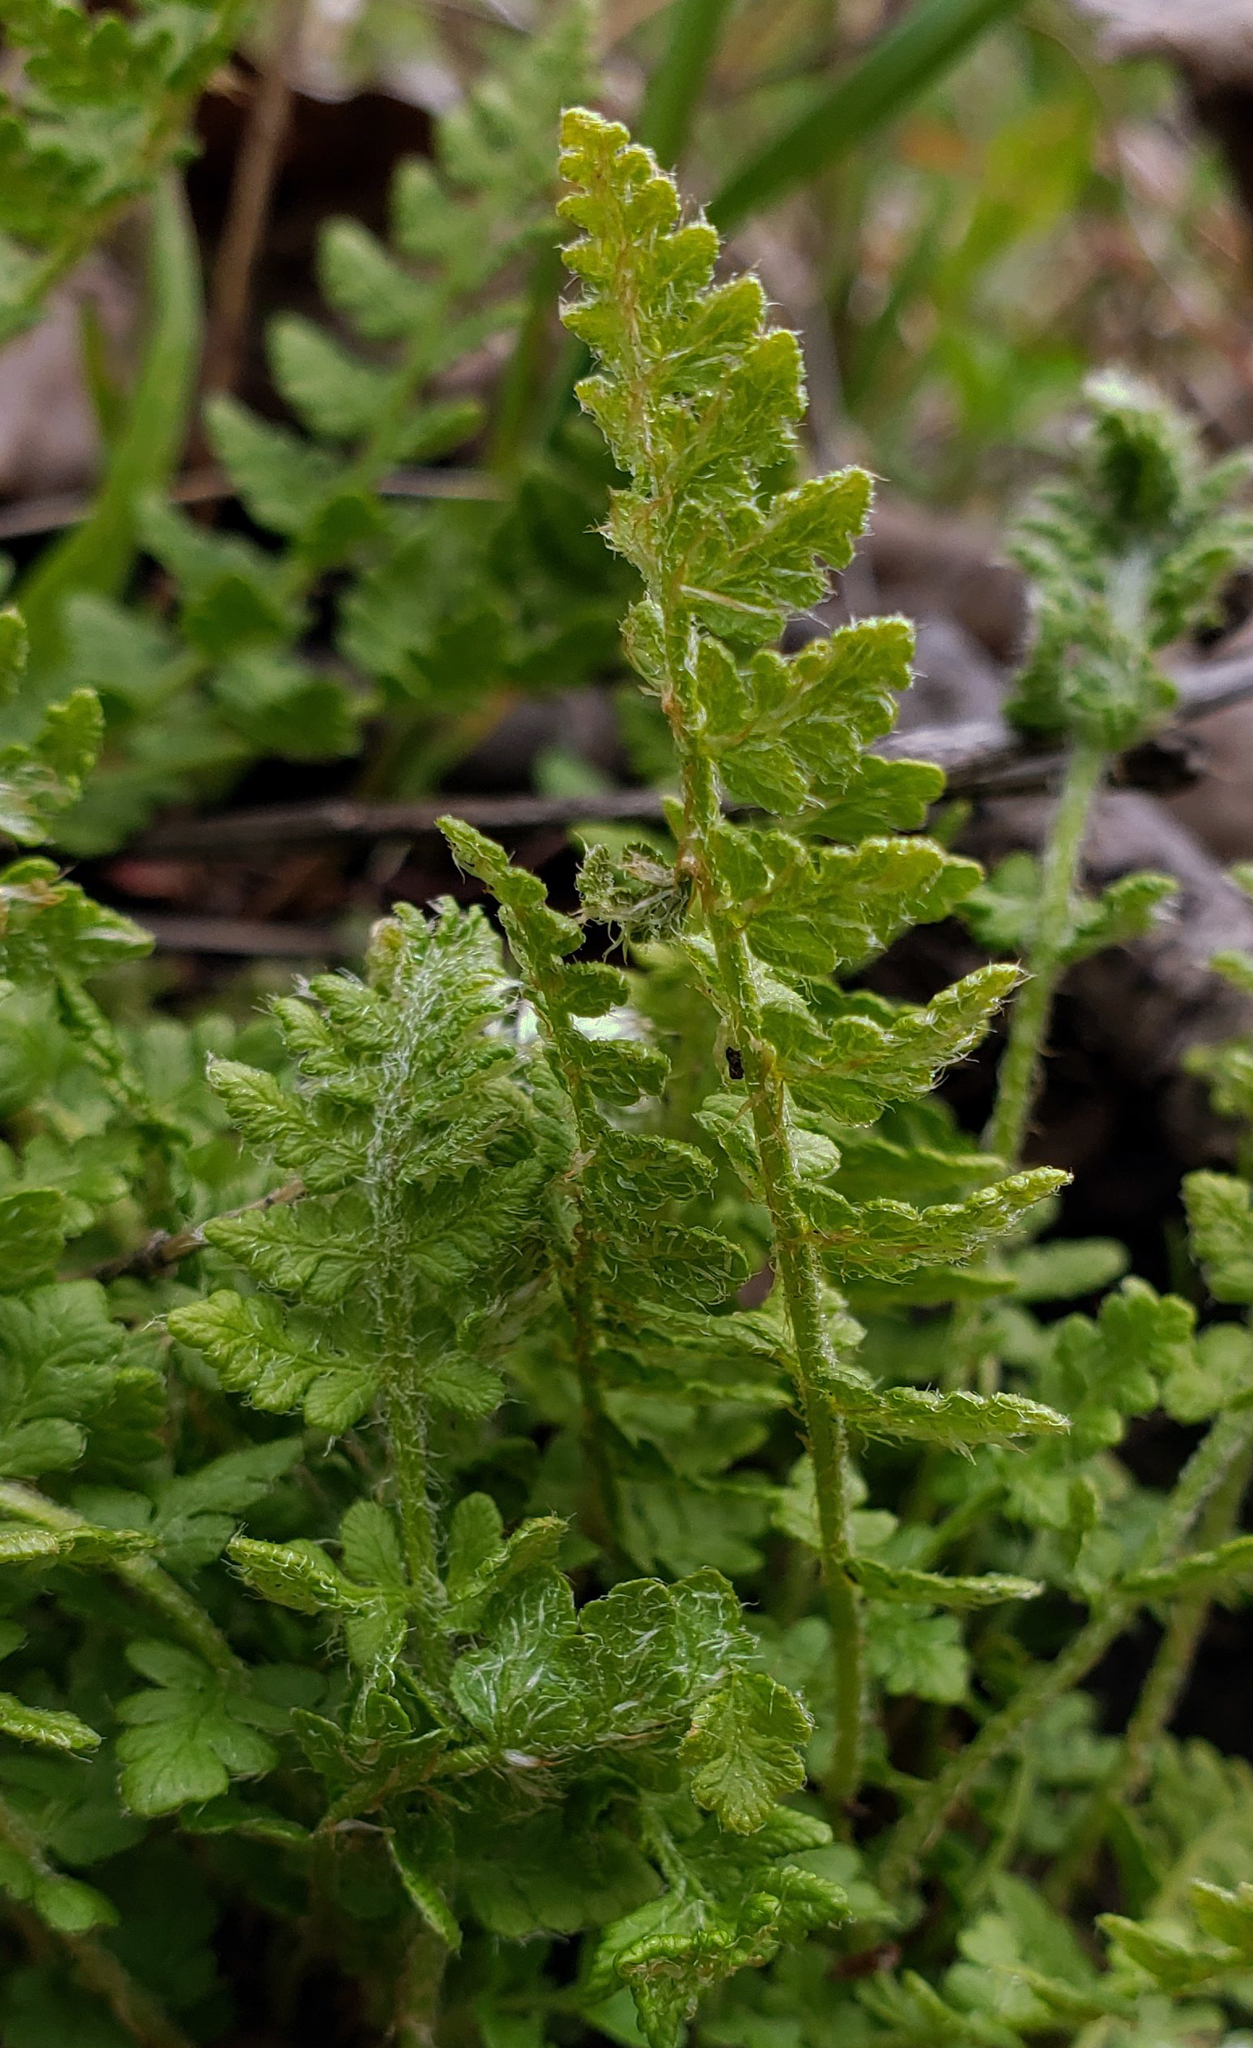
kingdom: Plantae
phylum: Tracheophyta
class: Polypodiopsida
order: Polypodiales
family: Woodsiaceae
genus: Woodsia
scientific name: Woodsia ilvensis
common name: Fragrant woodsia
